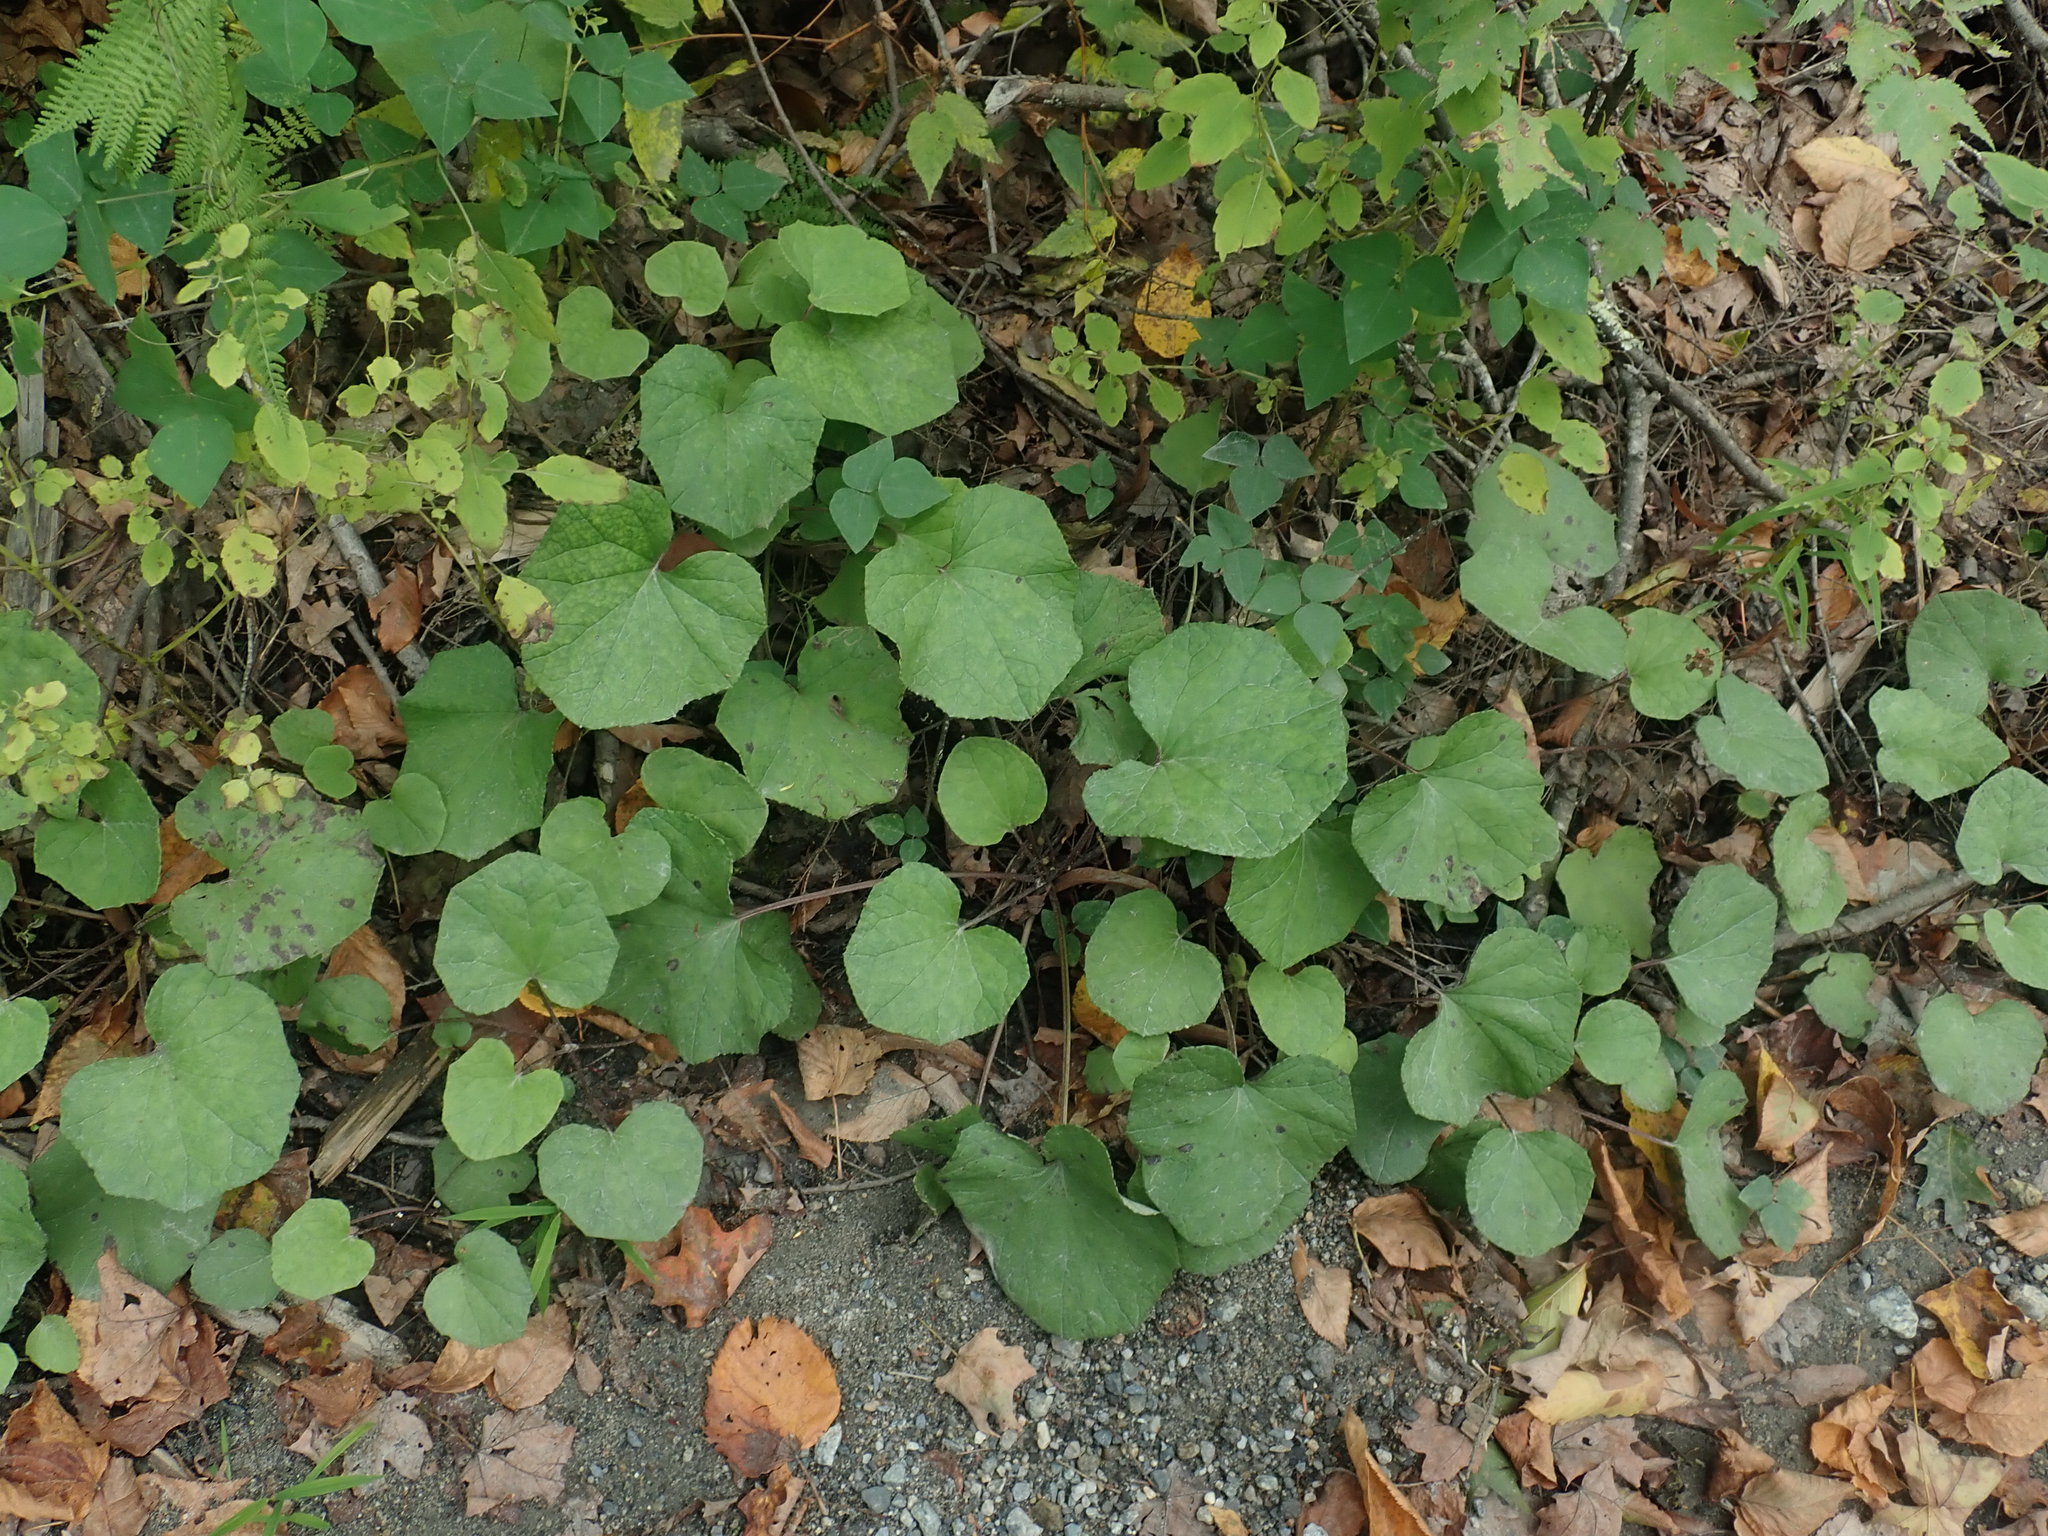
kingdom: Plantae
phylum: Tracheophyta
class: Magnoliopsida
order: Asterales
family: Asteraceae
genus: Tussilago
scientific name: Tussilago farfara
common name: Coltsfoot
